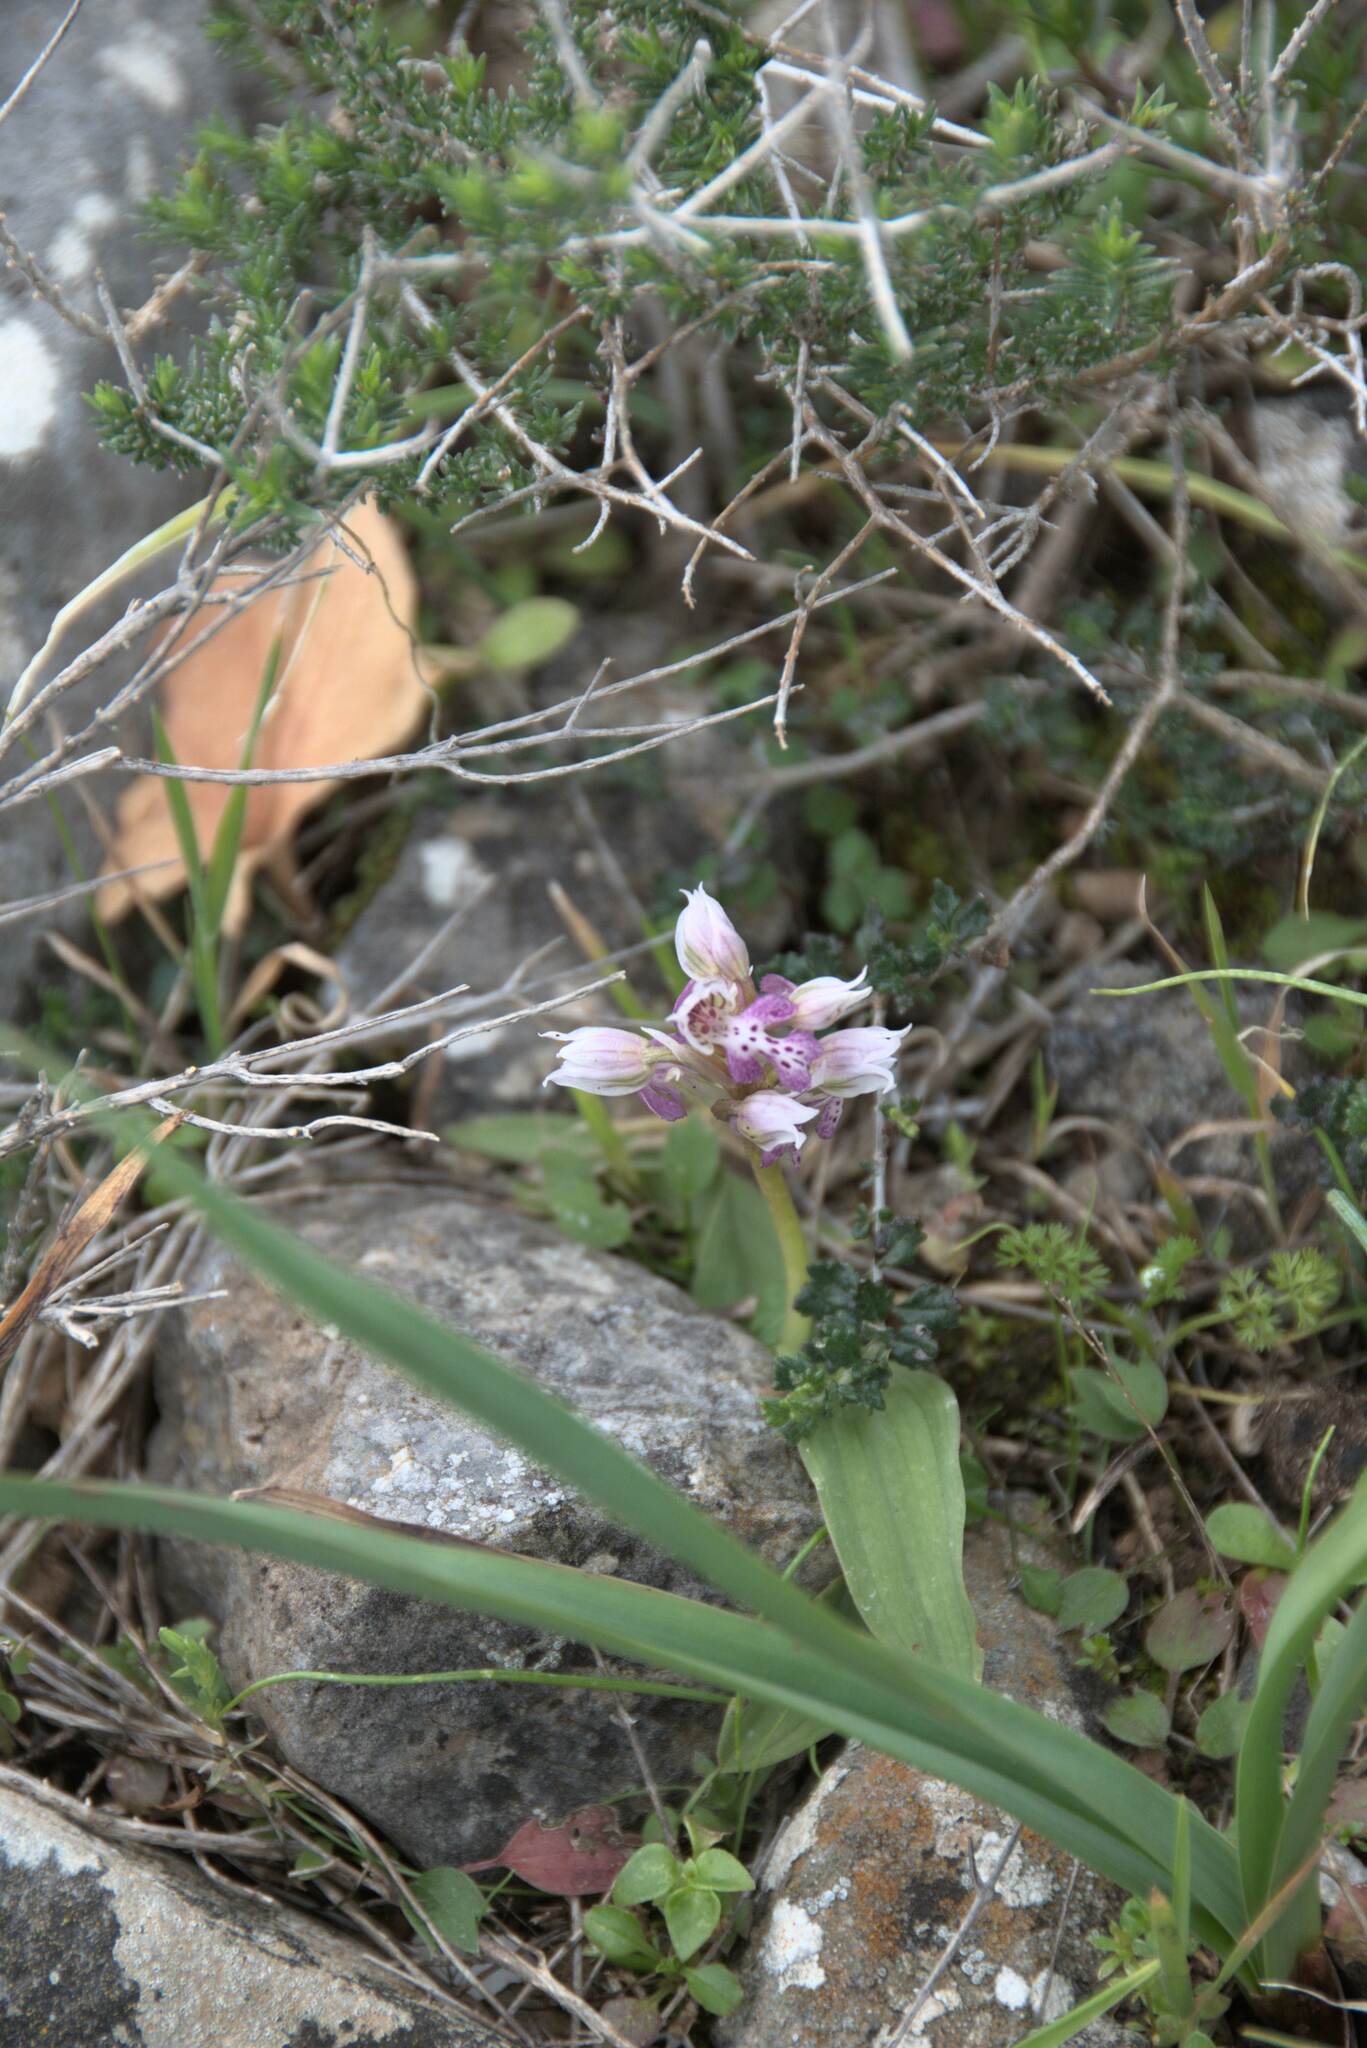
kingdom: Plantae
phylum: Tracheophyta
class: Liliopsida
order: Asparagales
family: Orchidaceae
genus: Neotinea
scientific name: Neotinea lactea
